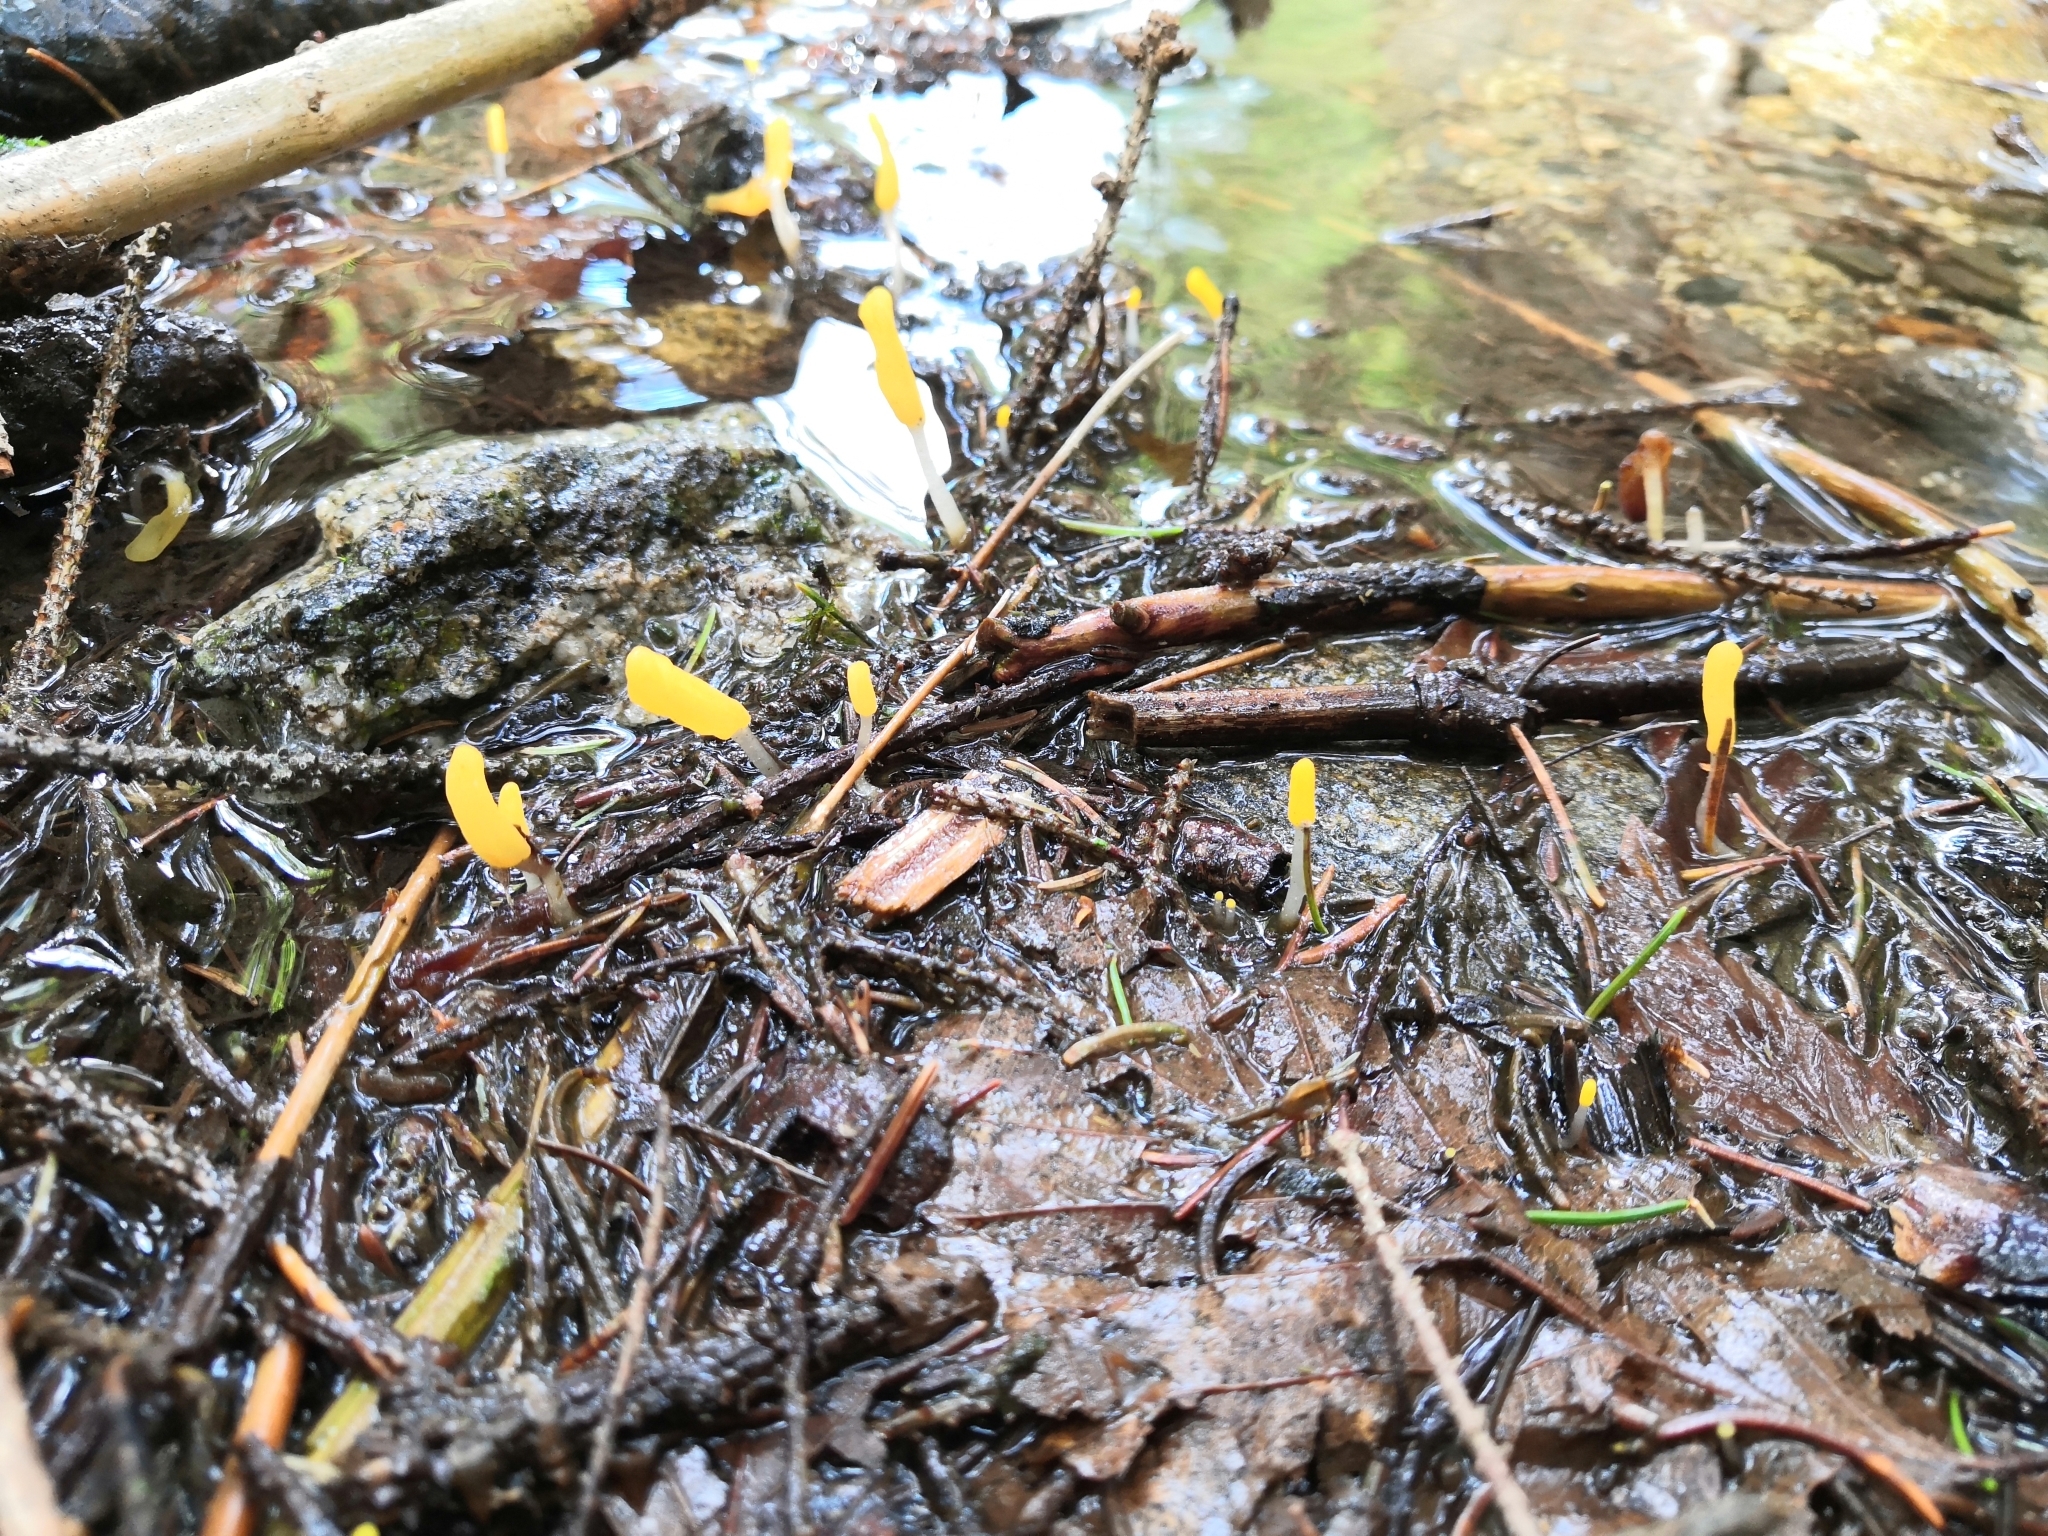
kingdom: Fungi
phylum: Ascomycota
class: Leotiomycetes
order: Helotiales
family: Cenangiaceae
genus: Mitrula
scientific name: Mitrula paludosa
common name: Bog beacon
